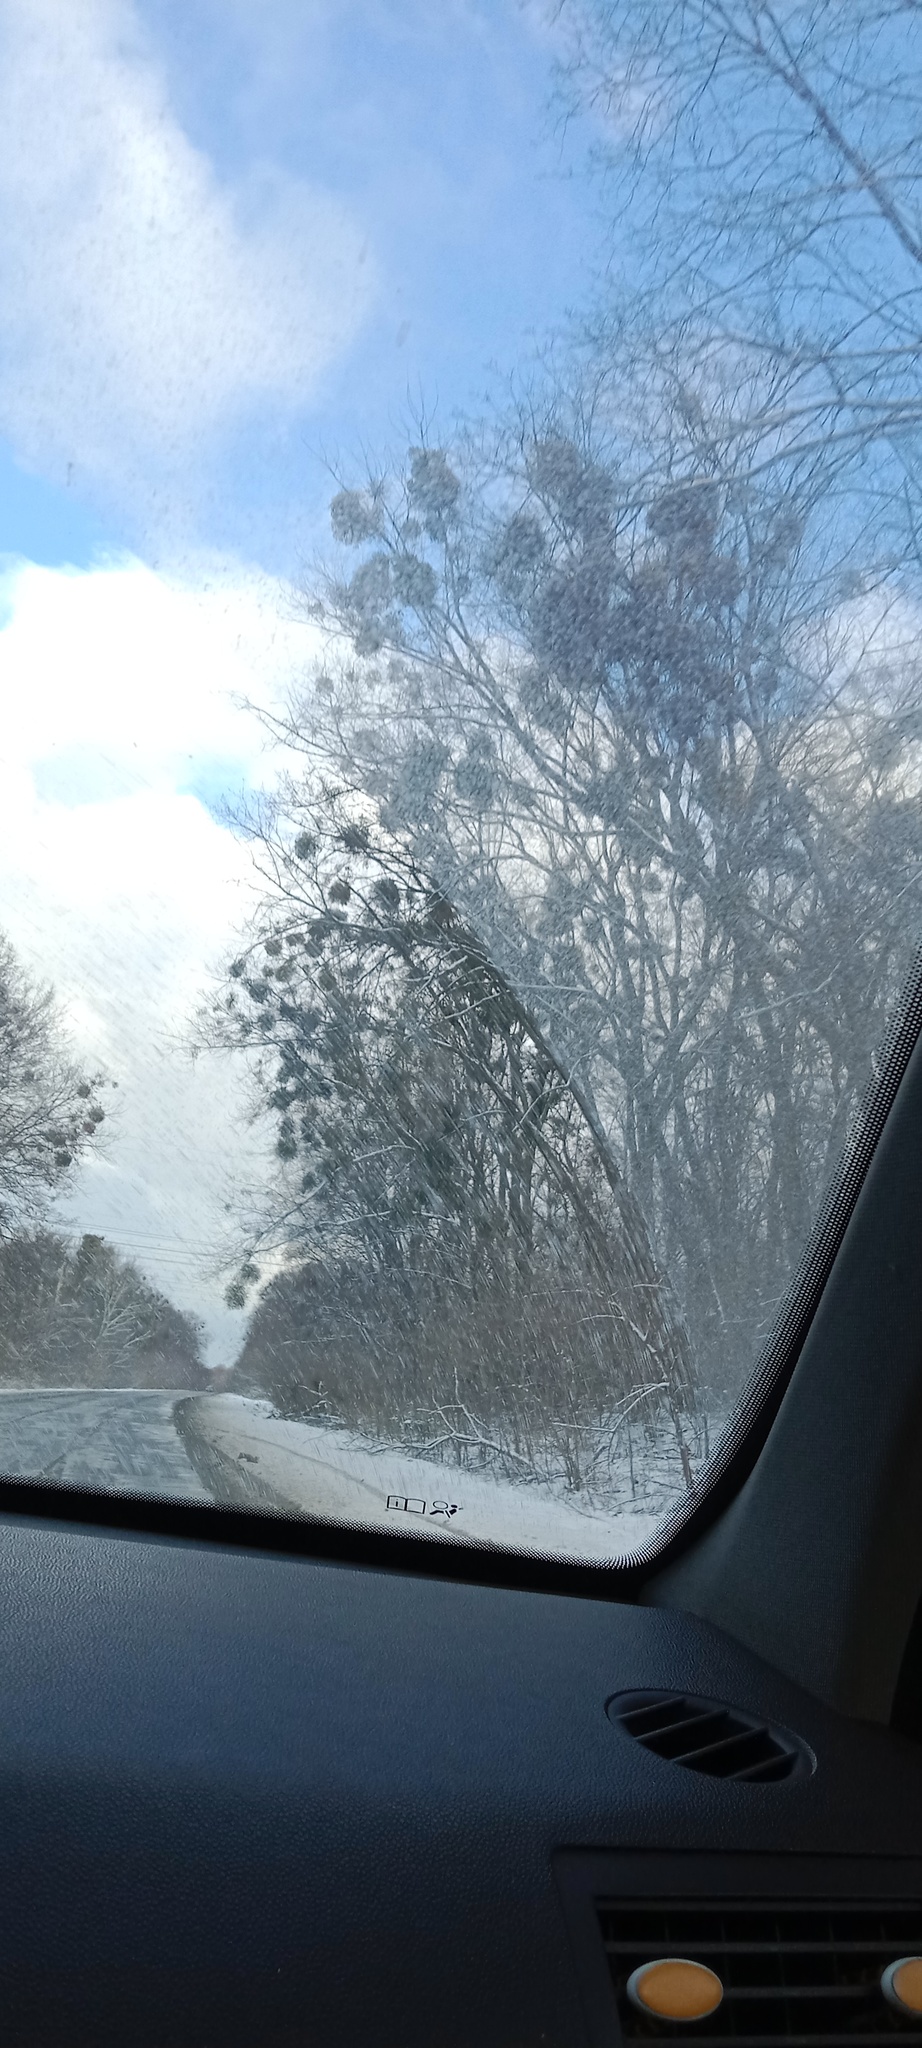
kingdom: Plantae
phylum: Tracheophyta
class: Magnoliopsida
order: Santalales
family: Viscaceae
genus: Viscum
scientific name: Viscum album
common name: Mistletoe
